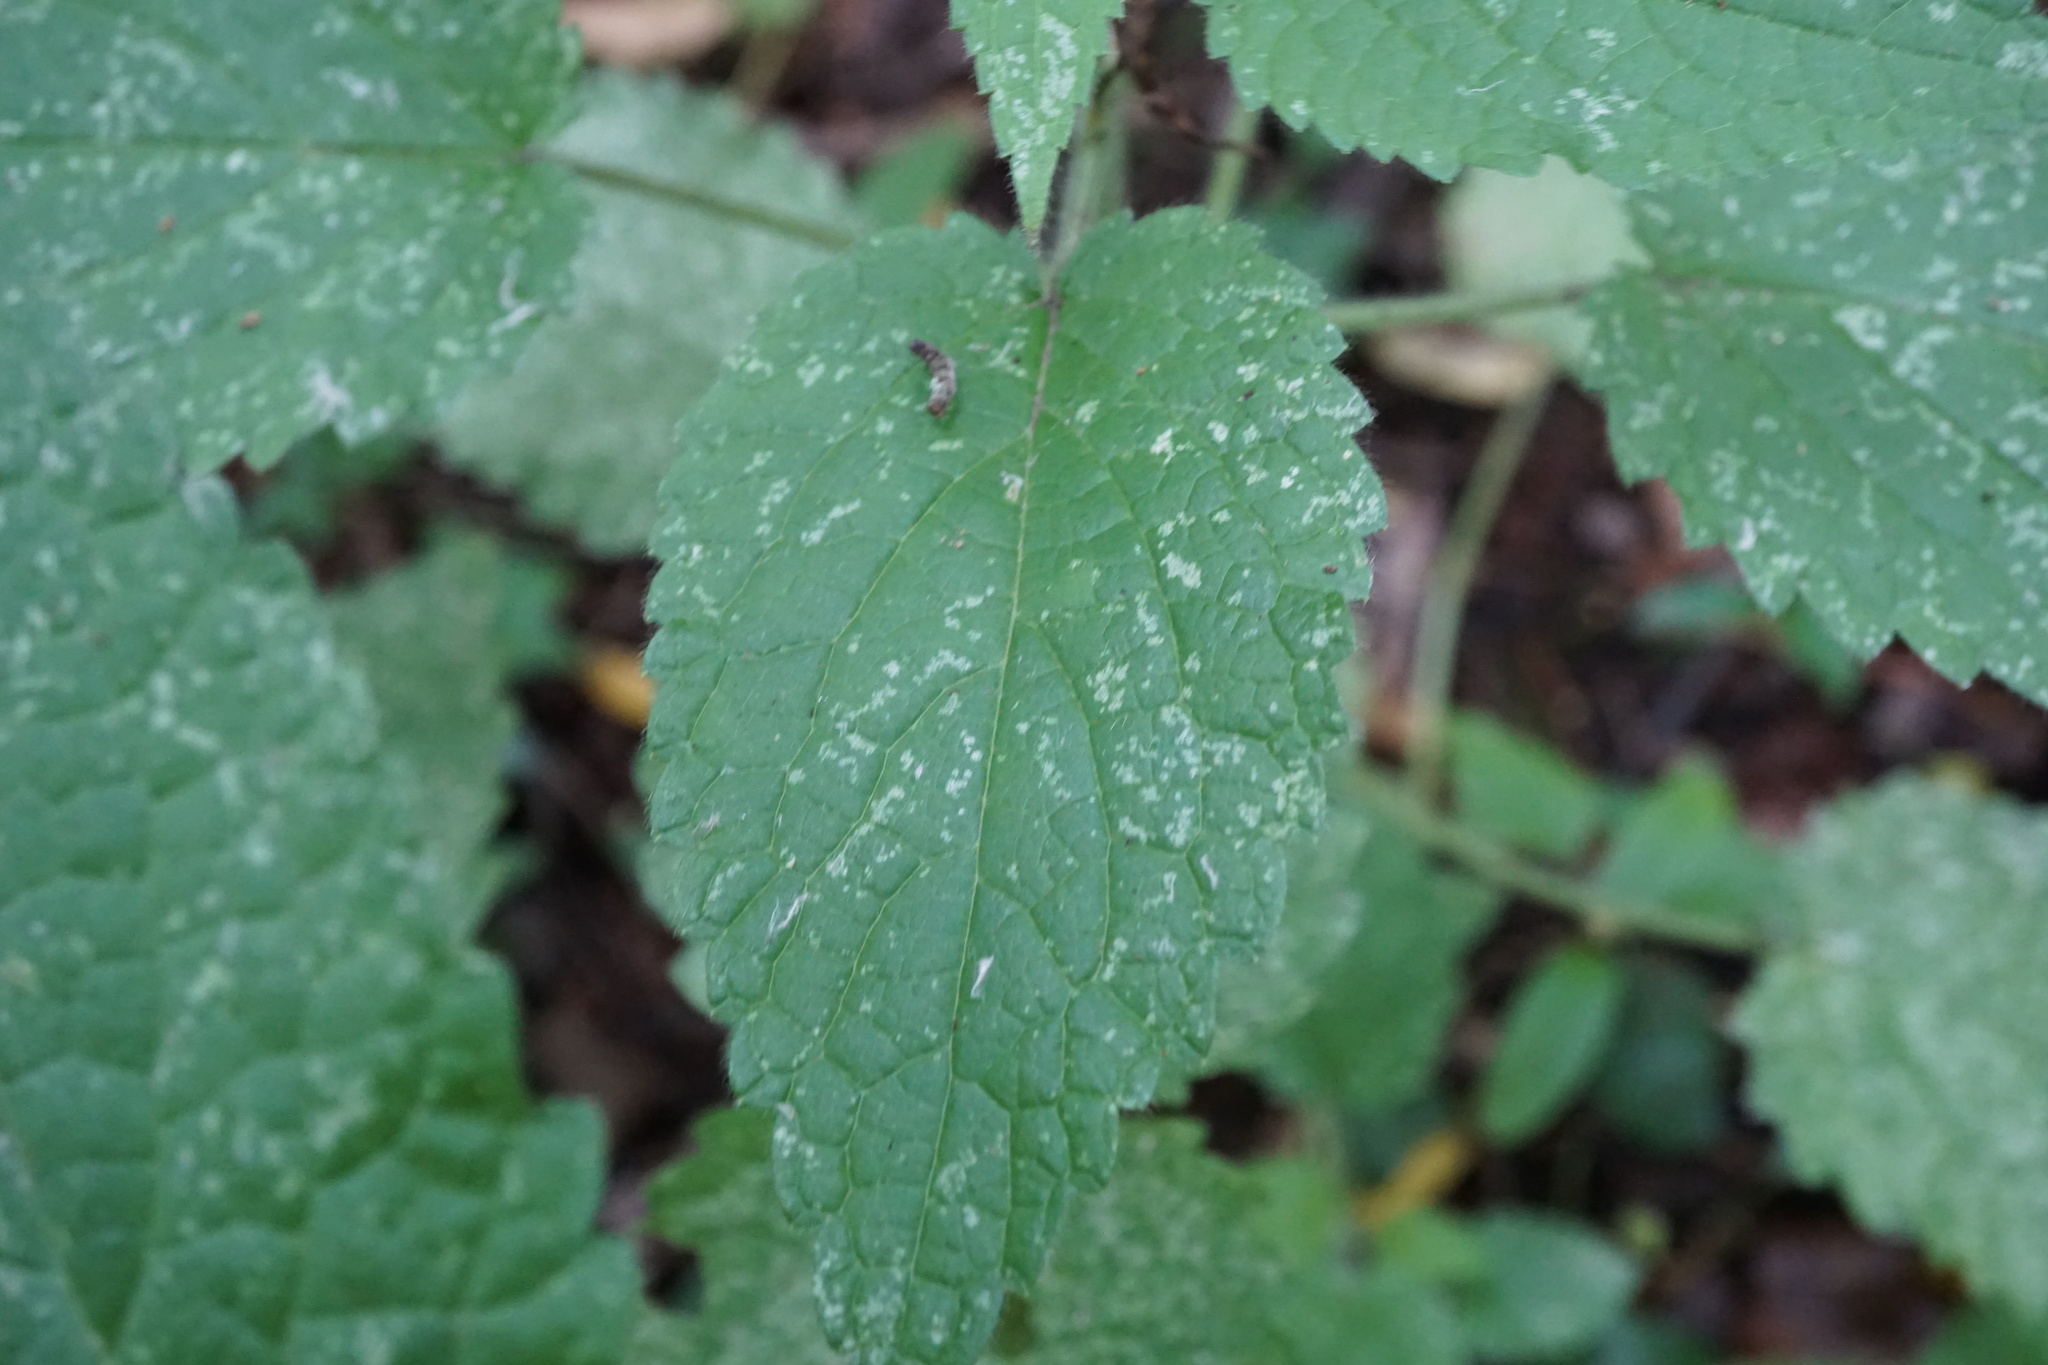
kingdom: Plantae
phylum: Tracheophyta
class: Magnoliopsida
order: Lamiales
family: Lamiaceae
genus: Stachys
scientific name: Stachys sylvatica
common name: Hedge woundwort
